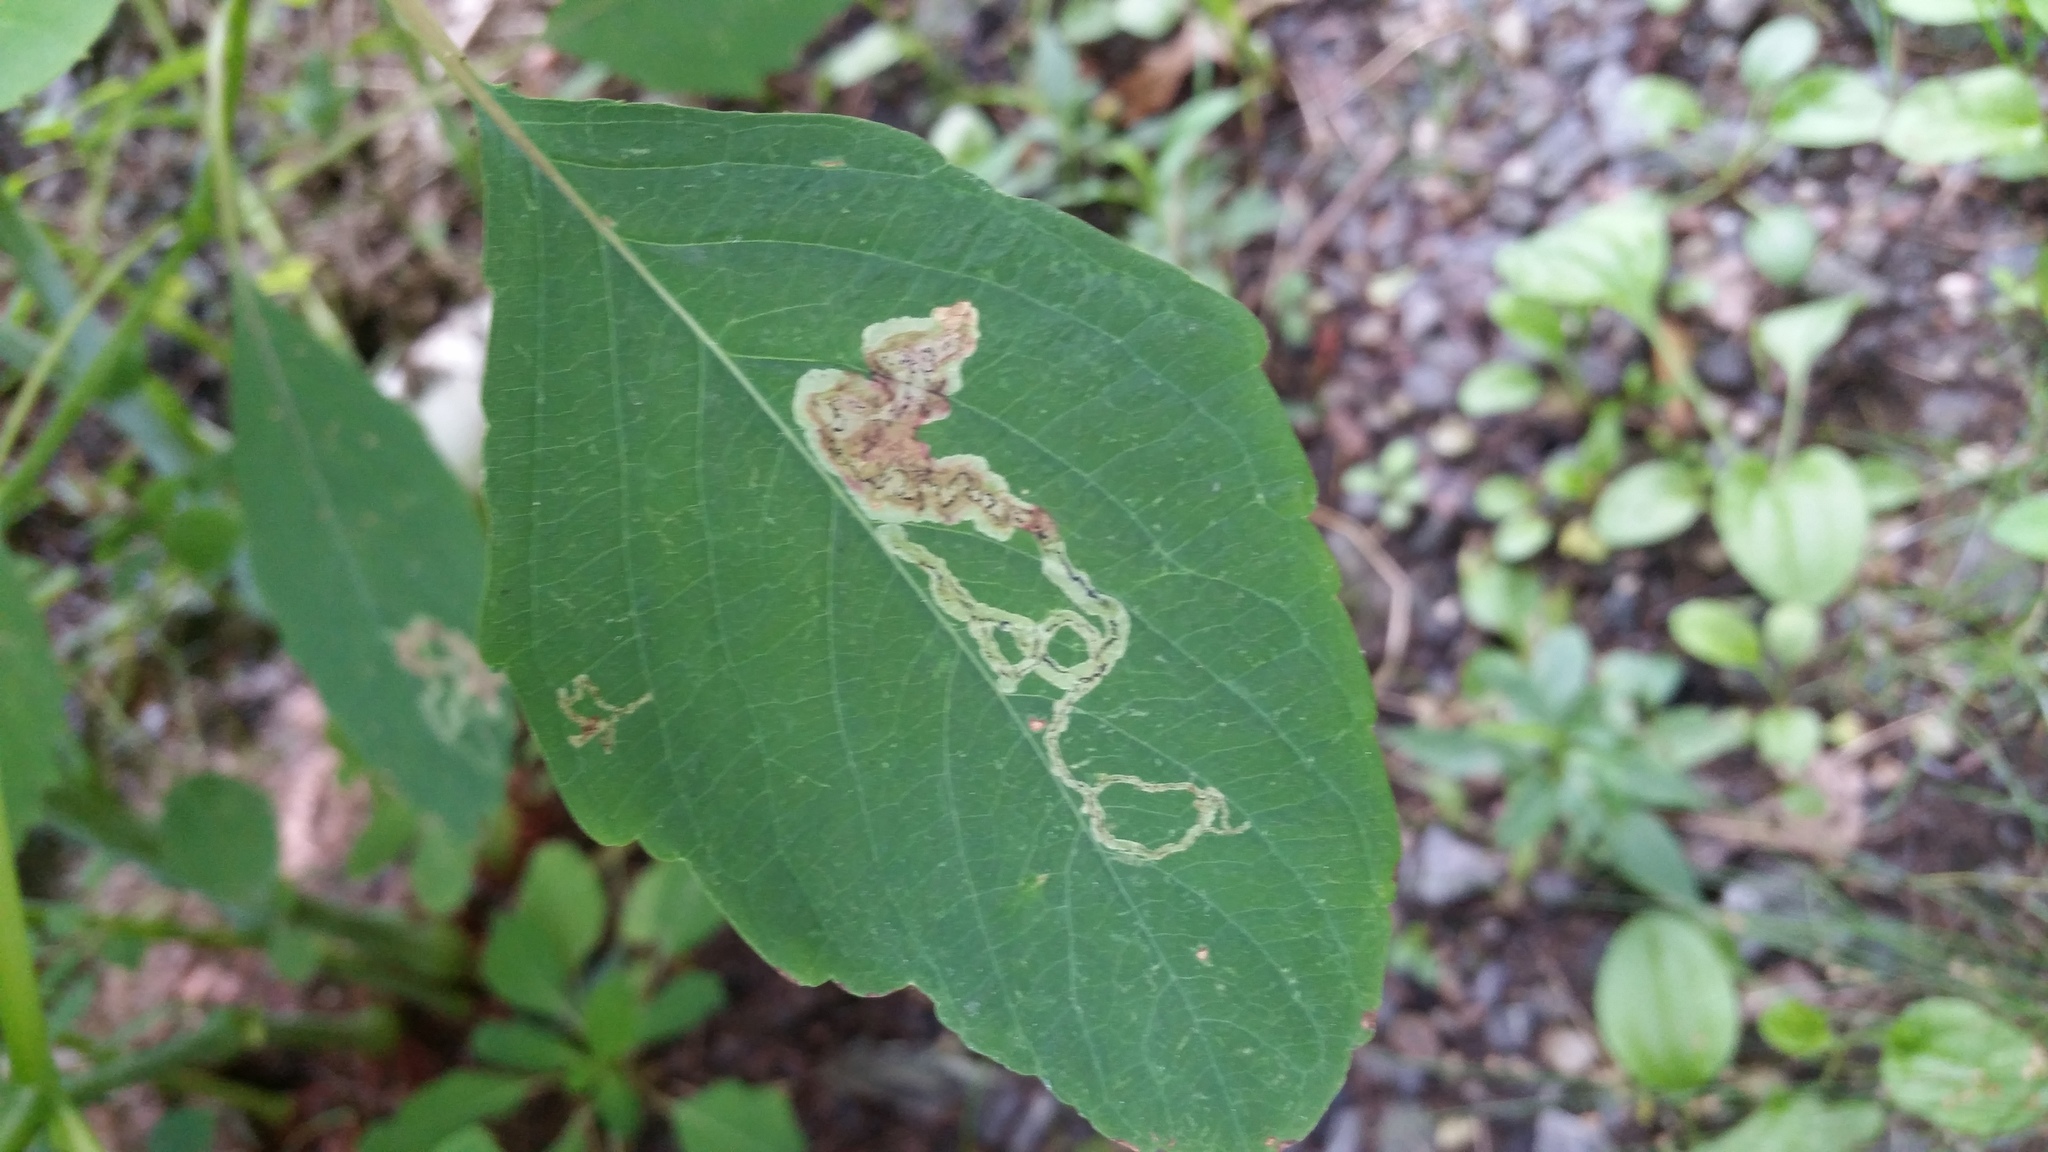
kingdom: Animalia
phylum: Arthropoda
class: Insecta
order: Diptera
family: Agromyzidae
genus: Phytoliriomyza
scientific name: Phytoliriomyza melampyga
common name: Jewelweed leaf-miner fly
